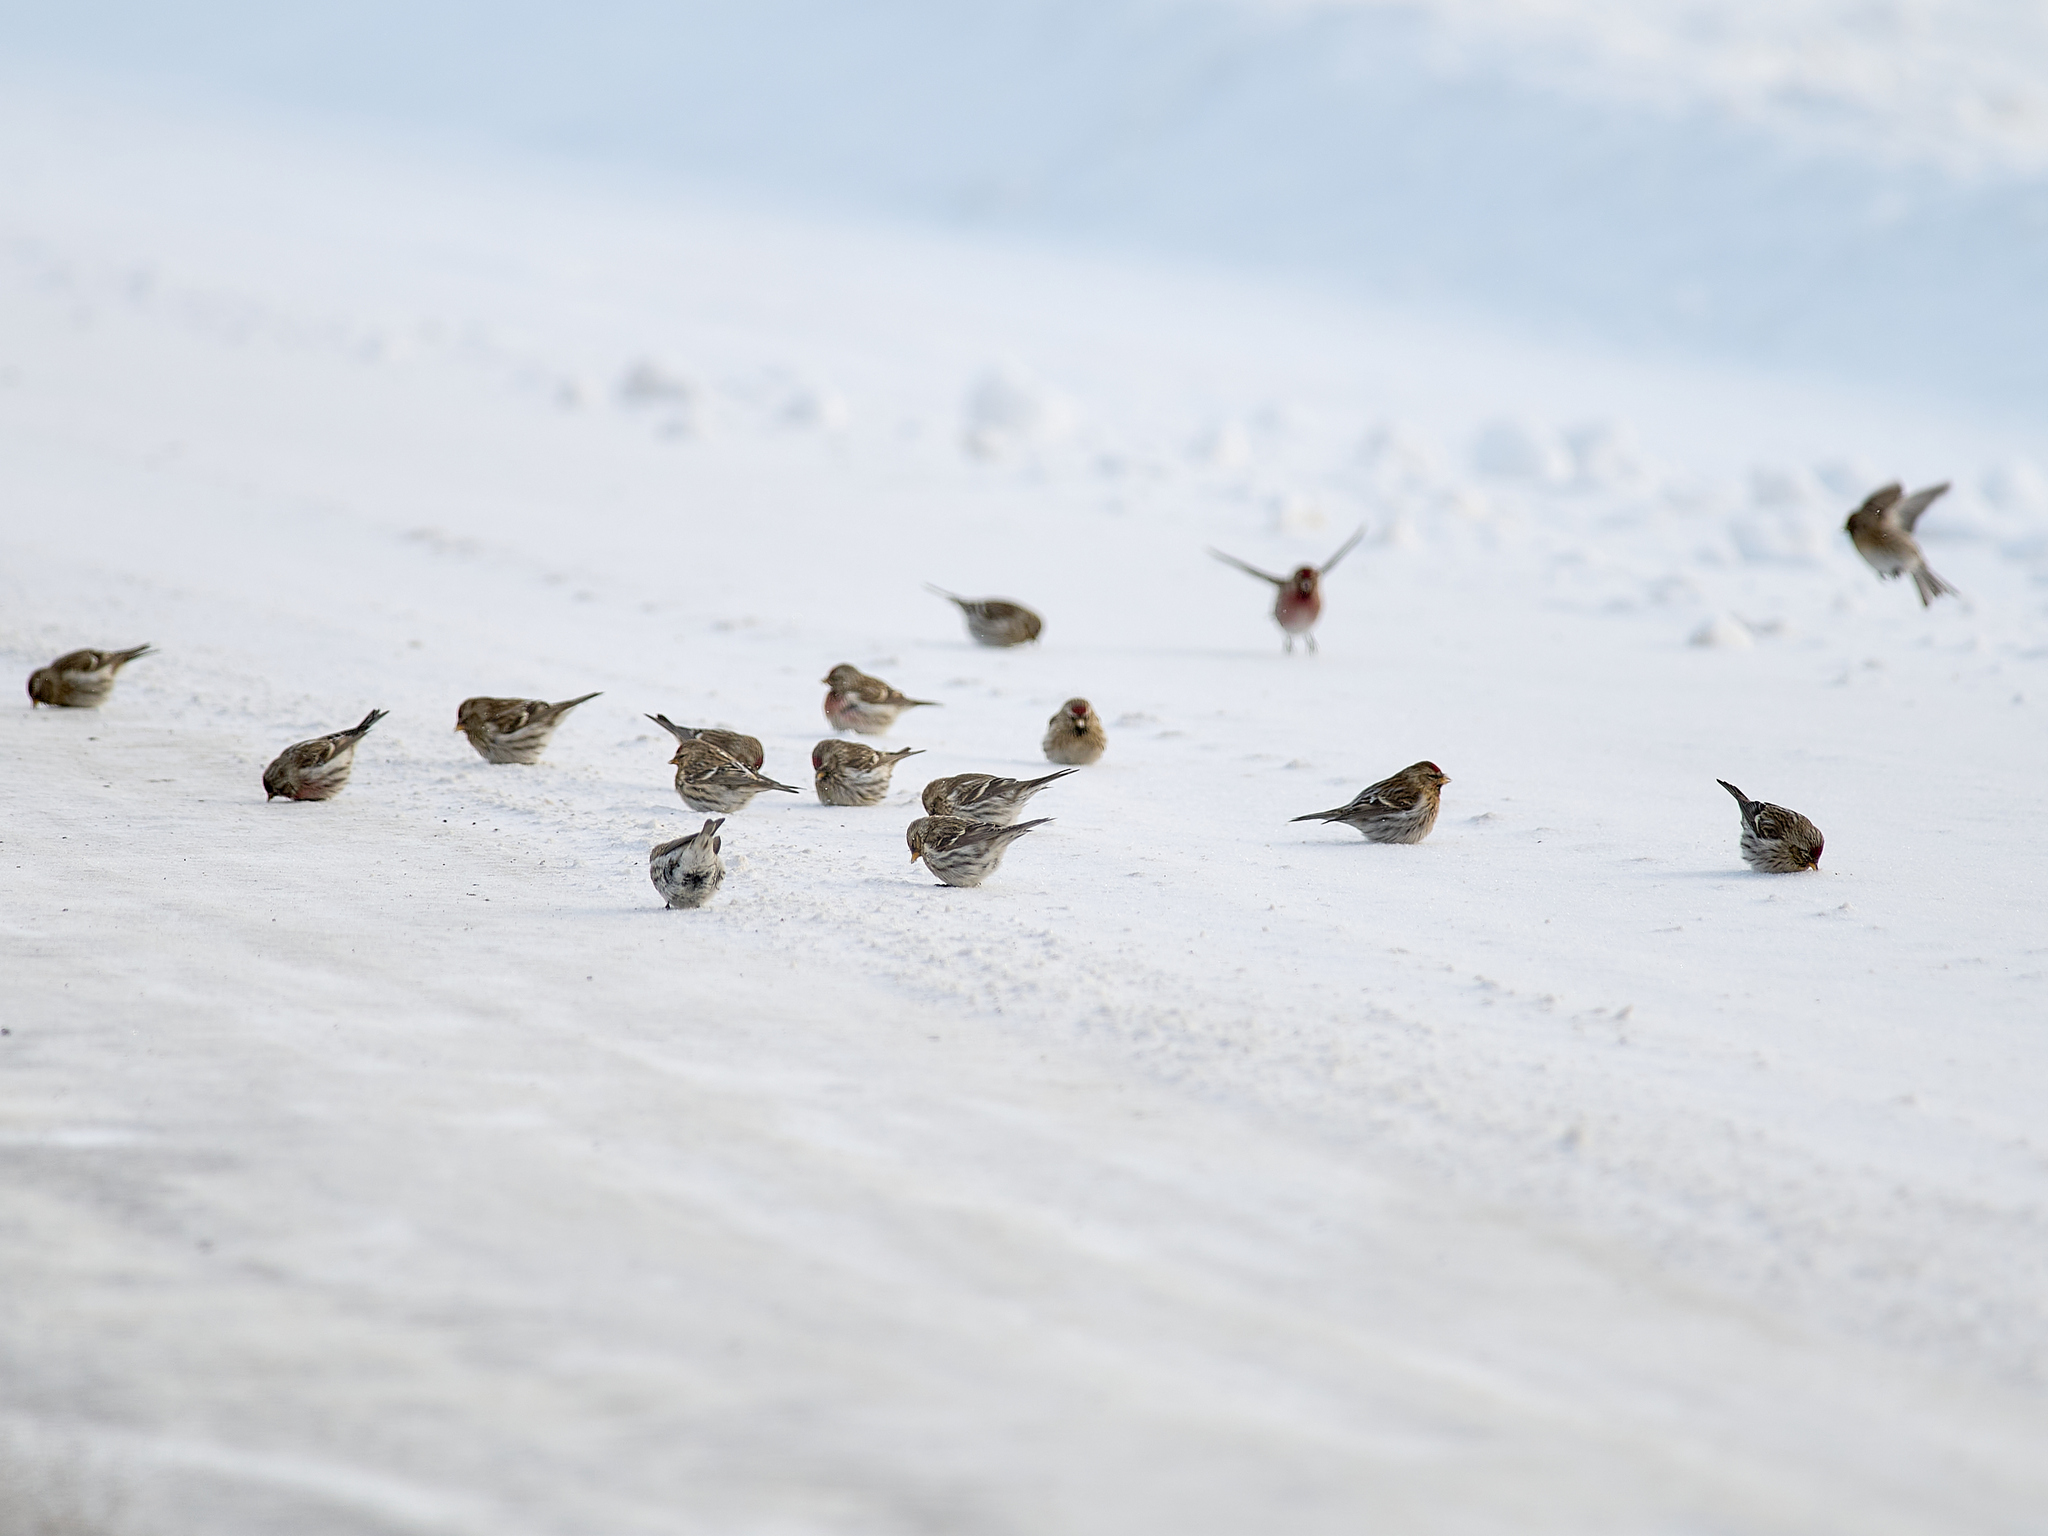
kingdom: Animalia
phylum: Chordata
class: Aves
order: Passeriformes
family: Fringillidae
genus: Acanthis
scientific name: Acanthis flammea
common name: Common redpoll
